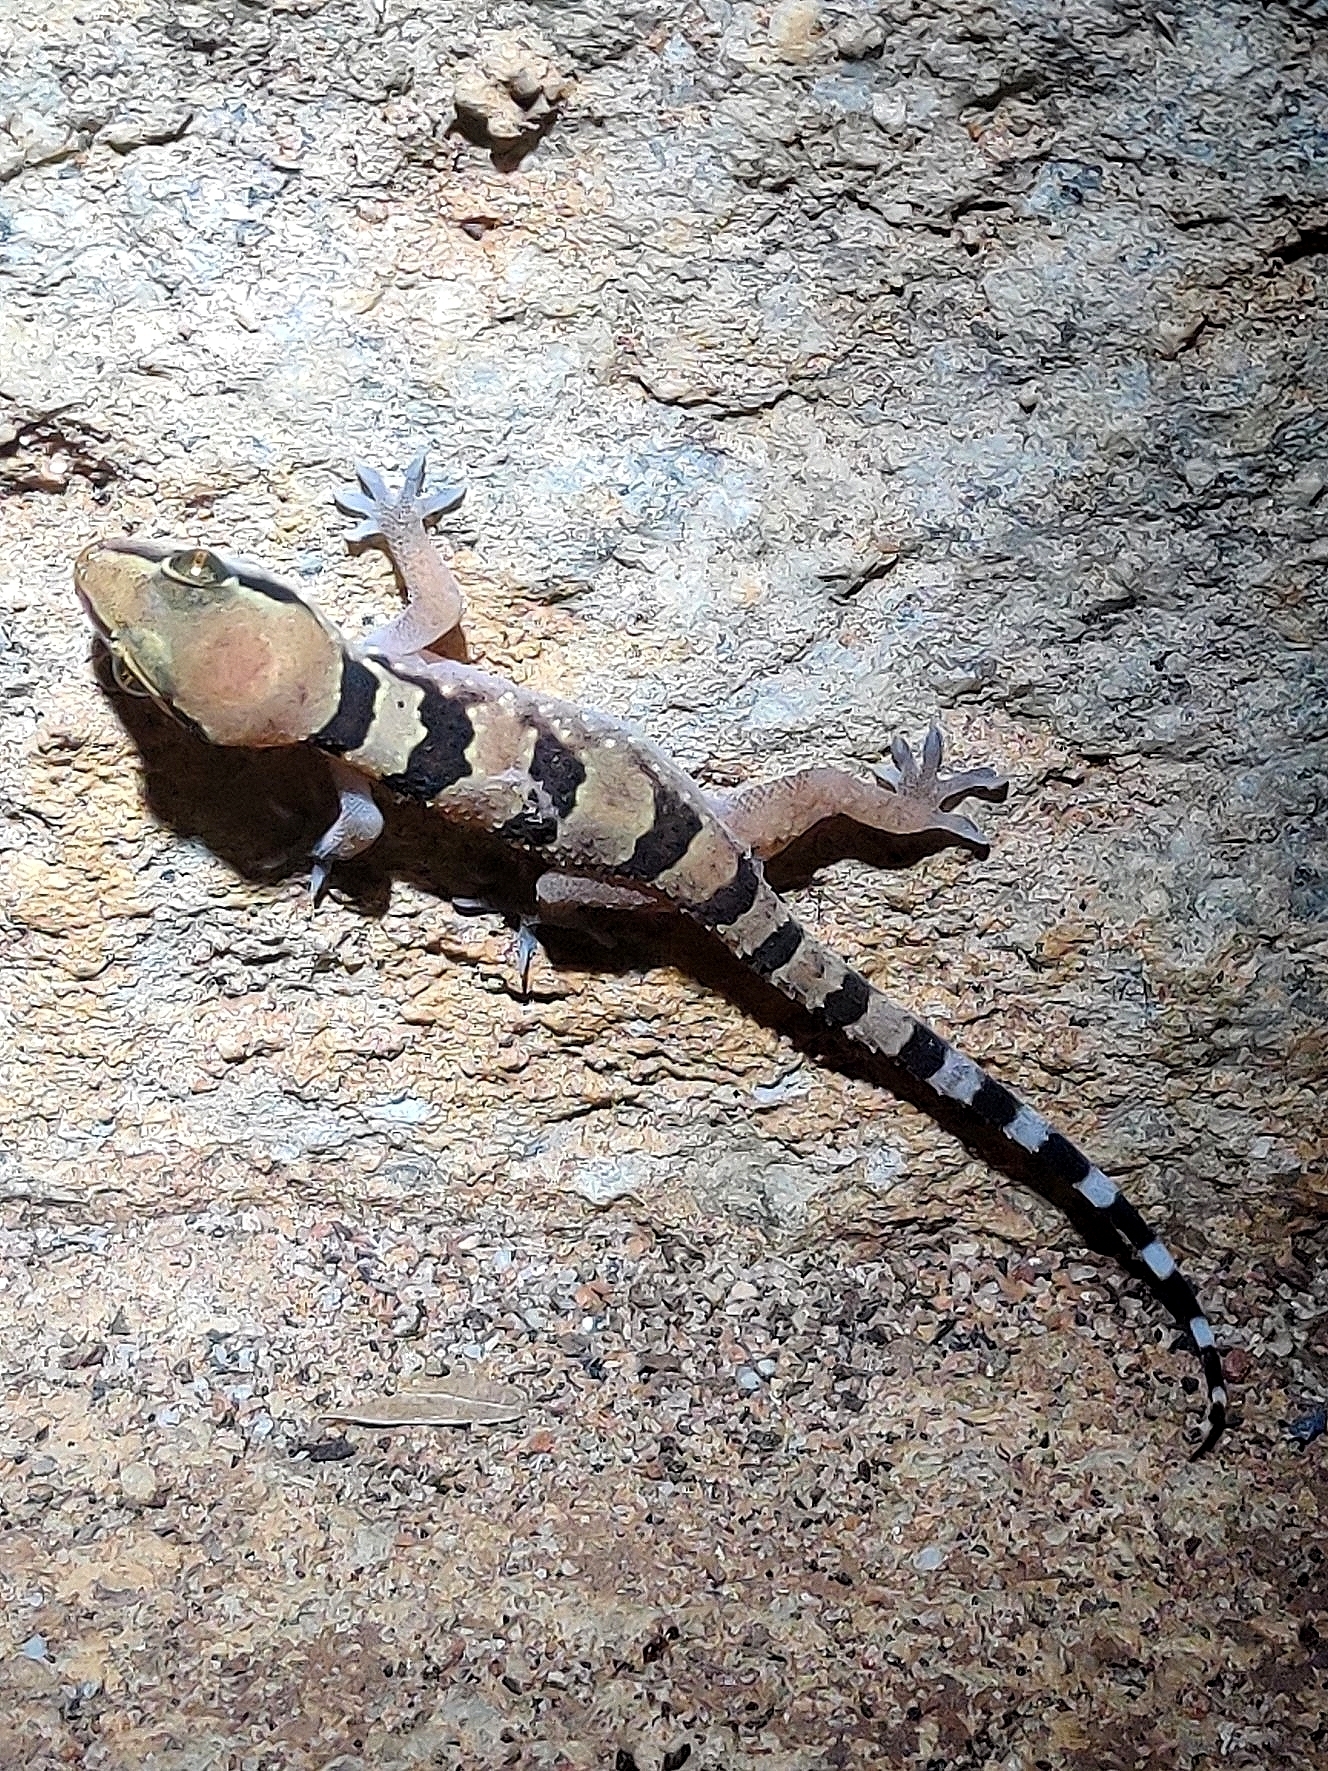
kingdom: Animalia
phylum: Chordata
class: Squamata
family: Gekkonidae
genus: Hemidactylus
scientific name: Hemidactylus whitakeri
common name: Whitaker’s termite hill gecko
